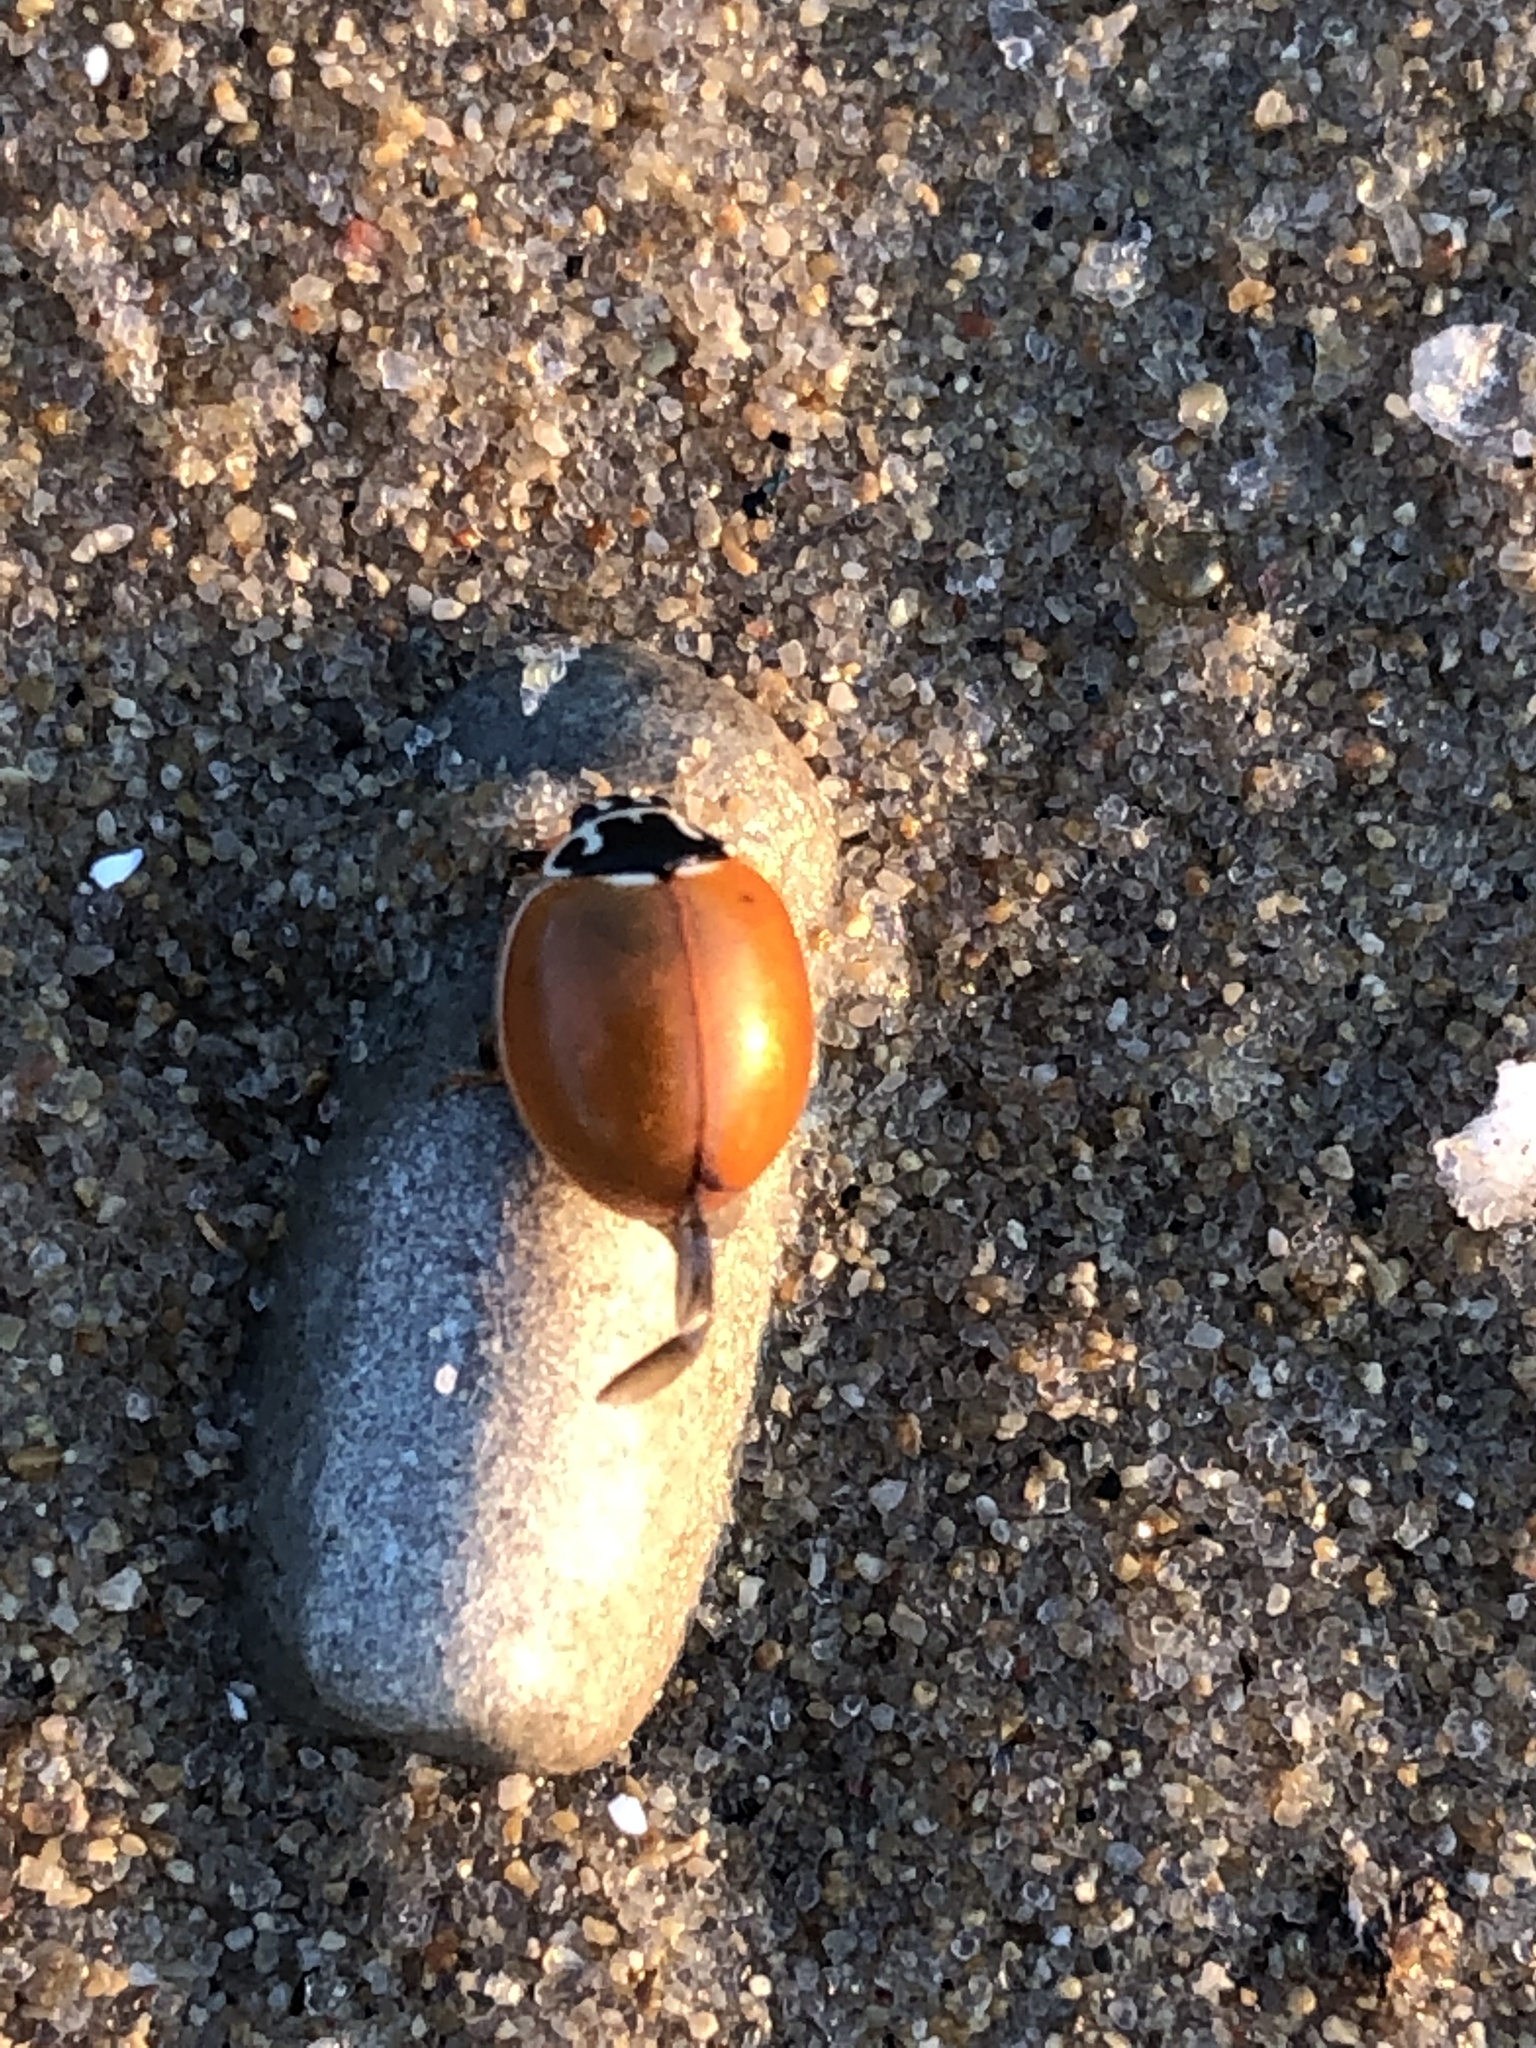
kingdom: Animalia
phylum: Arthropoda
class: Insecta
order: Coleoptera
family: Coccinellidae
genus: Cycloneda
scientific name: Cycloneda munda
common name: Polished lady beetle
